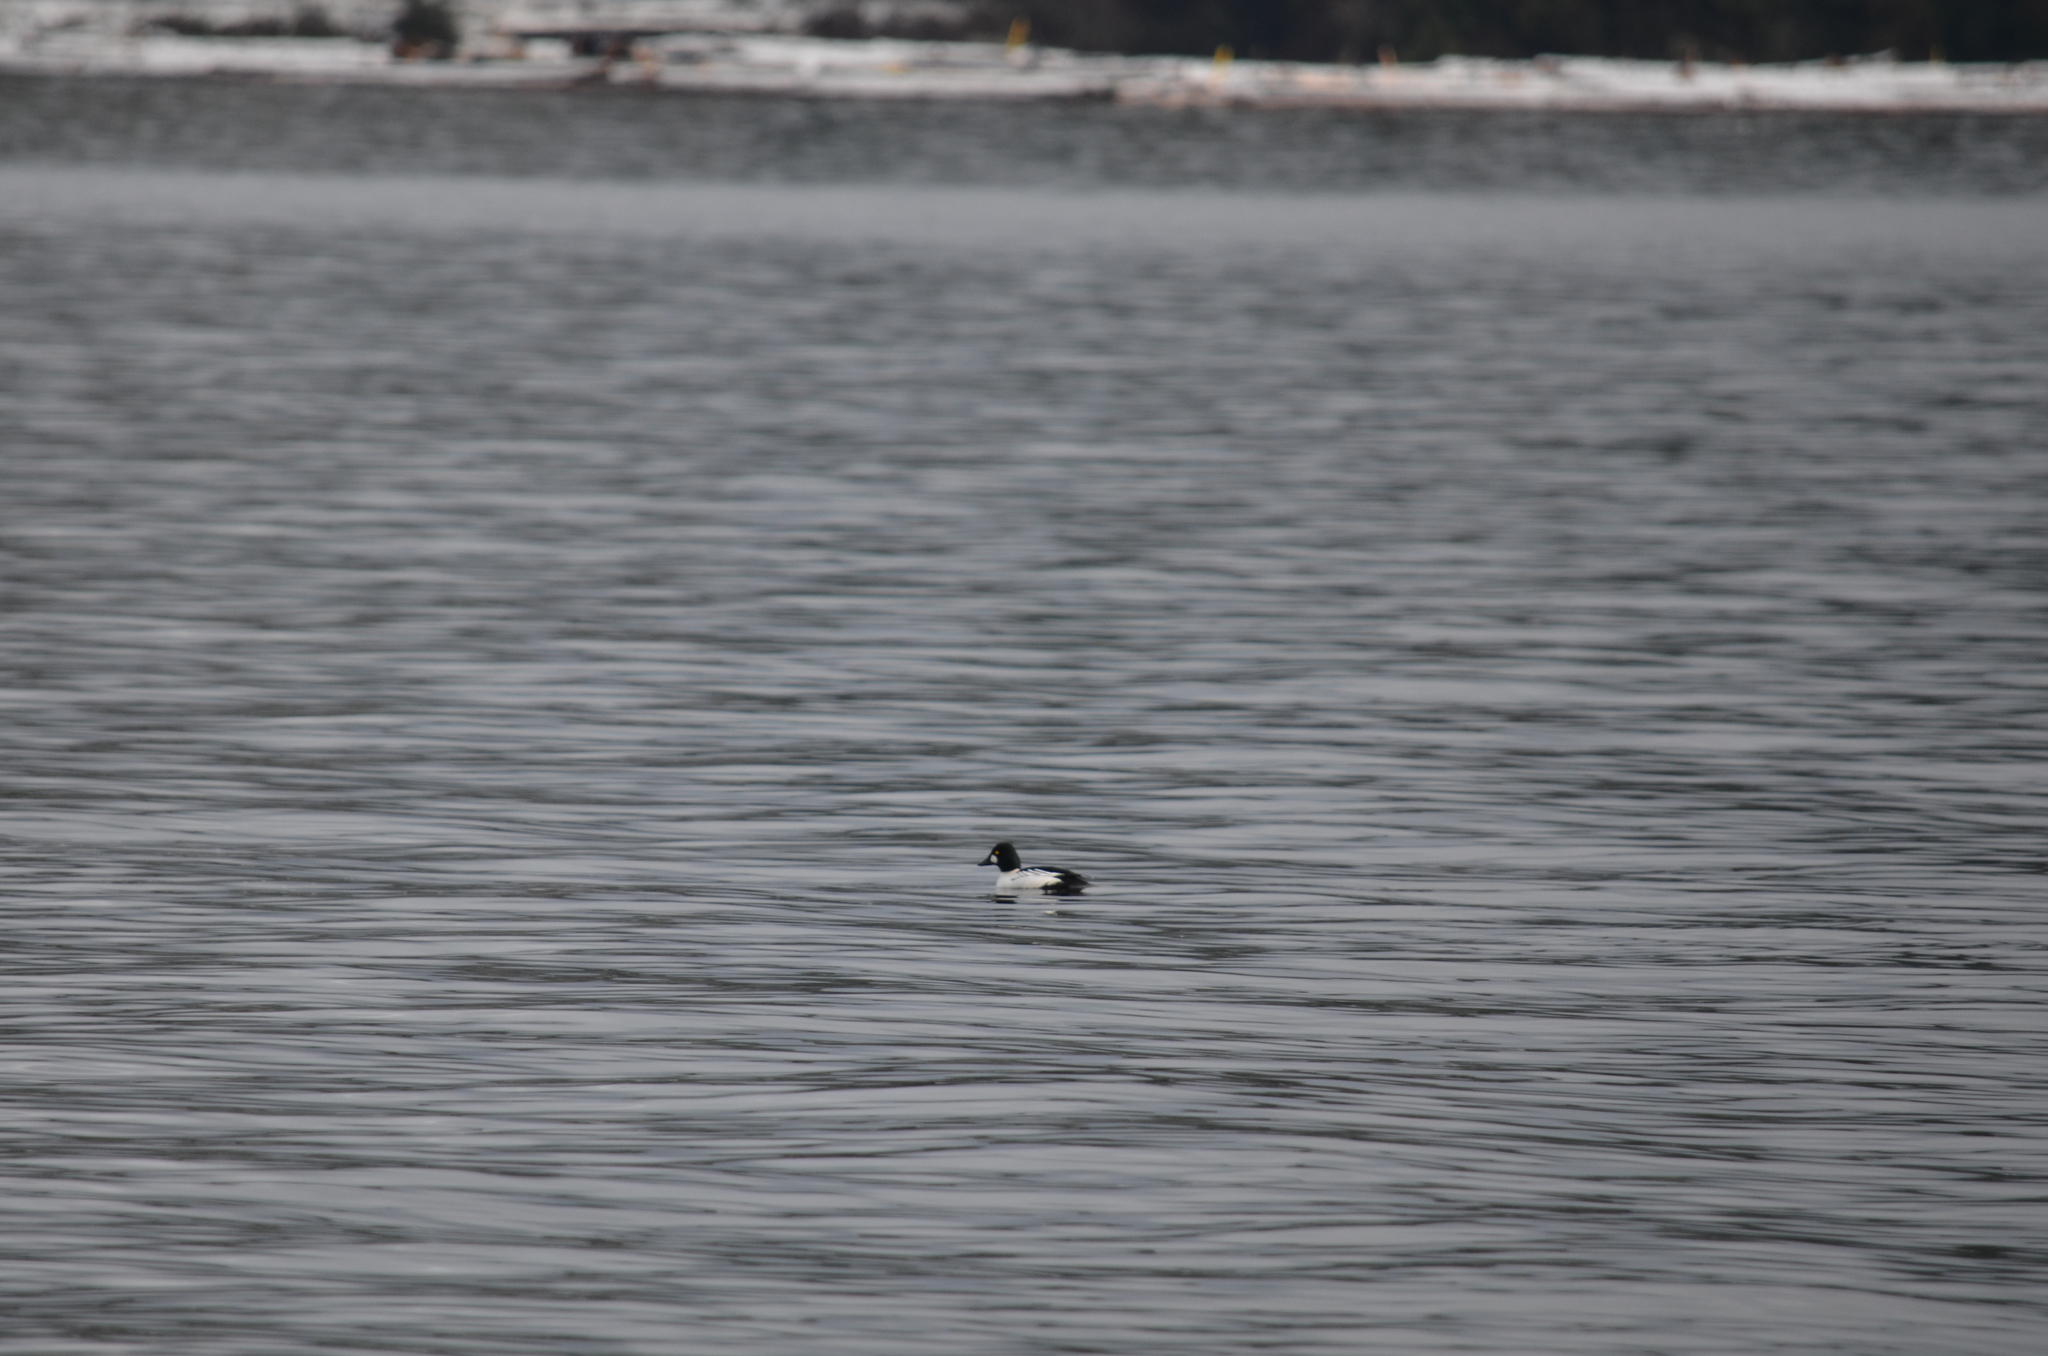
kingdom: Animalia
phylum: Chordata
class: Aves
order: Anseriformes
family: Anatidae
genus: Bucephala
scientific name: Bucephala clangula
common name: Common goldeneye
